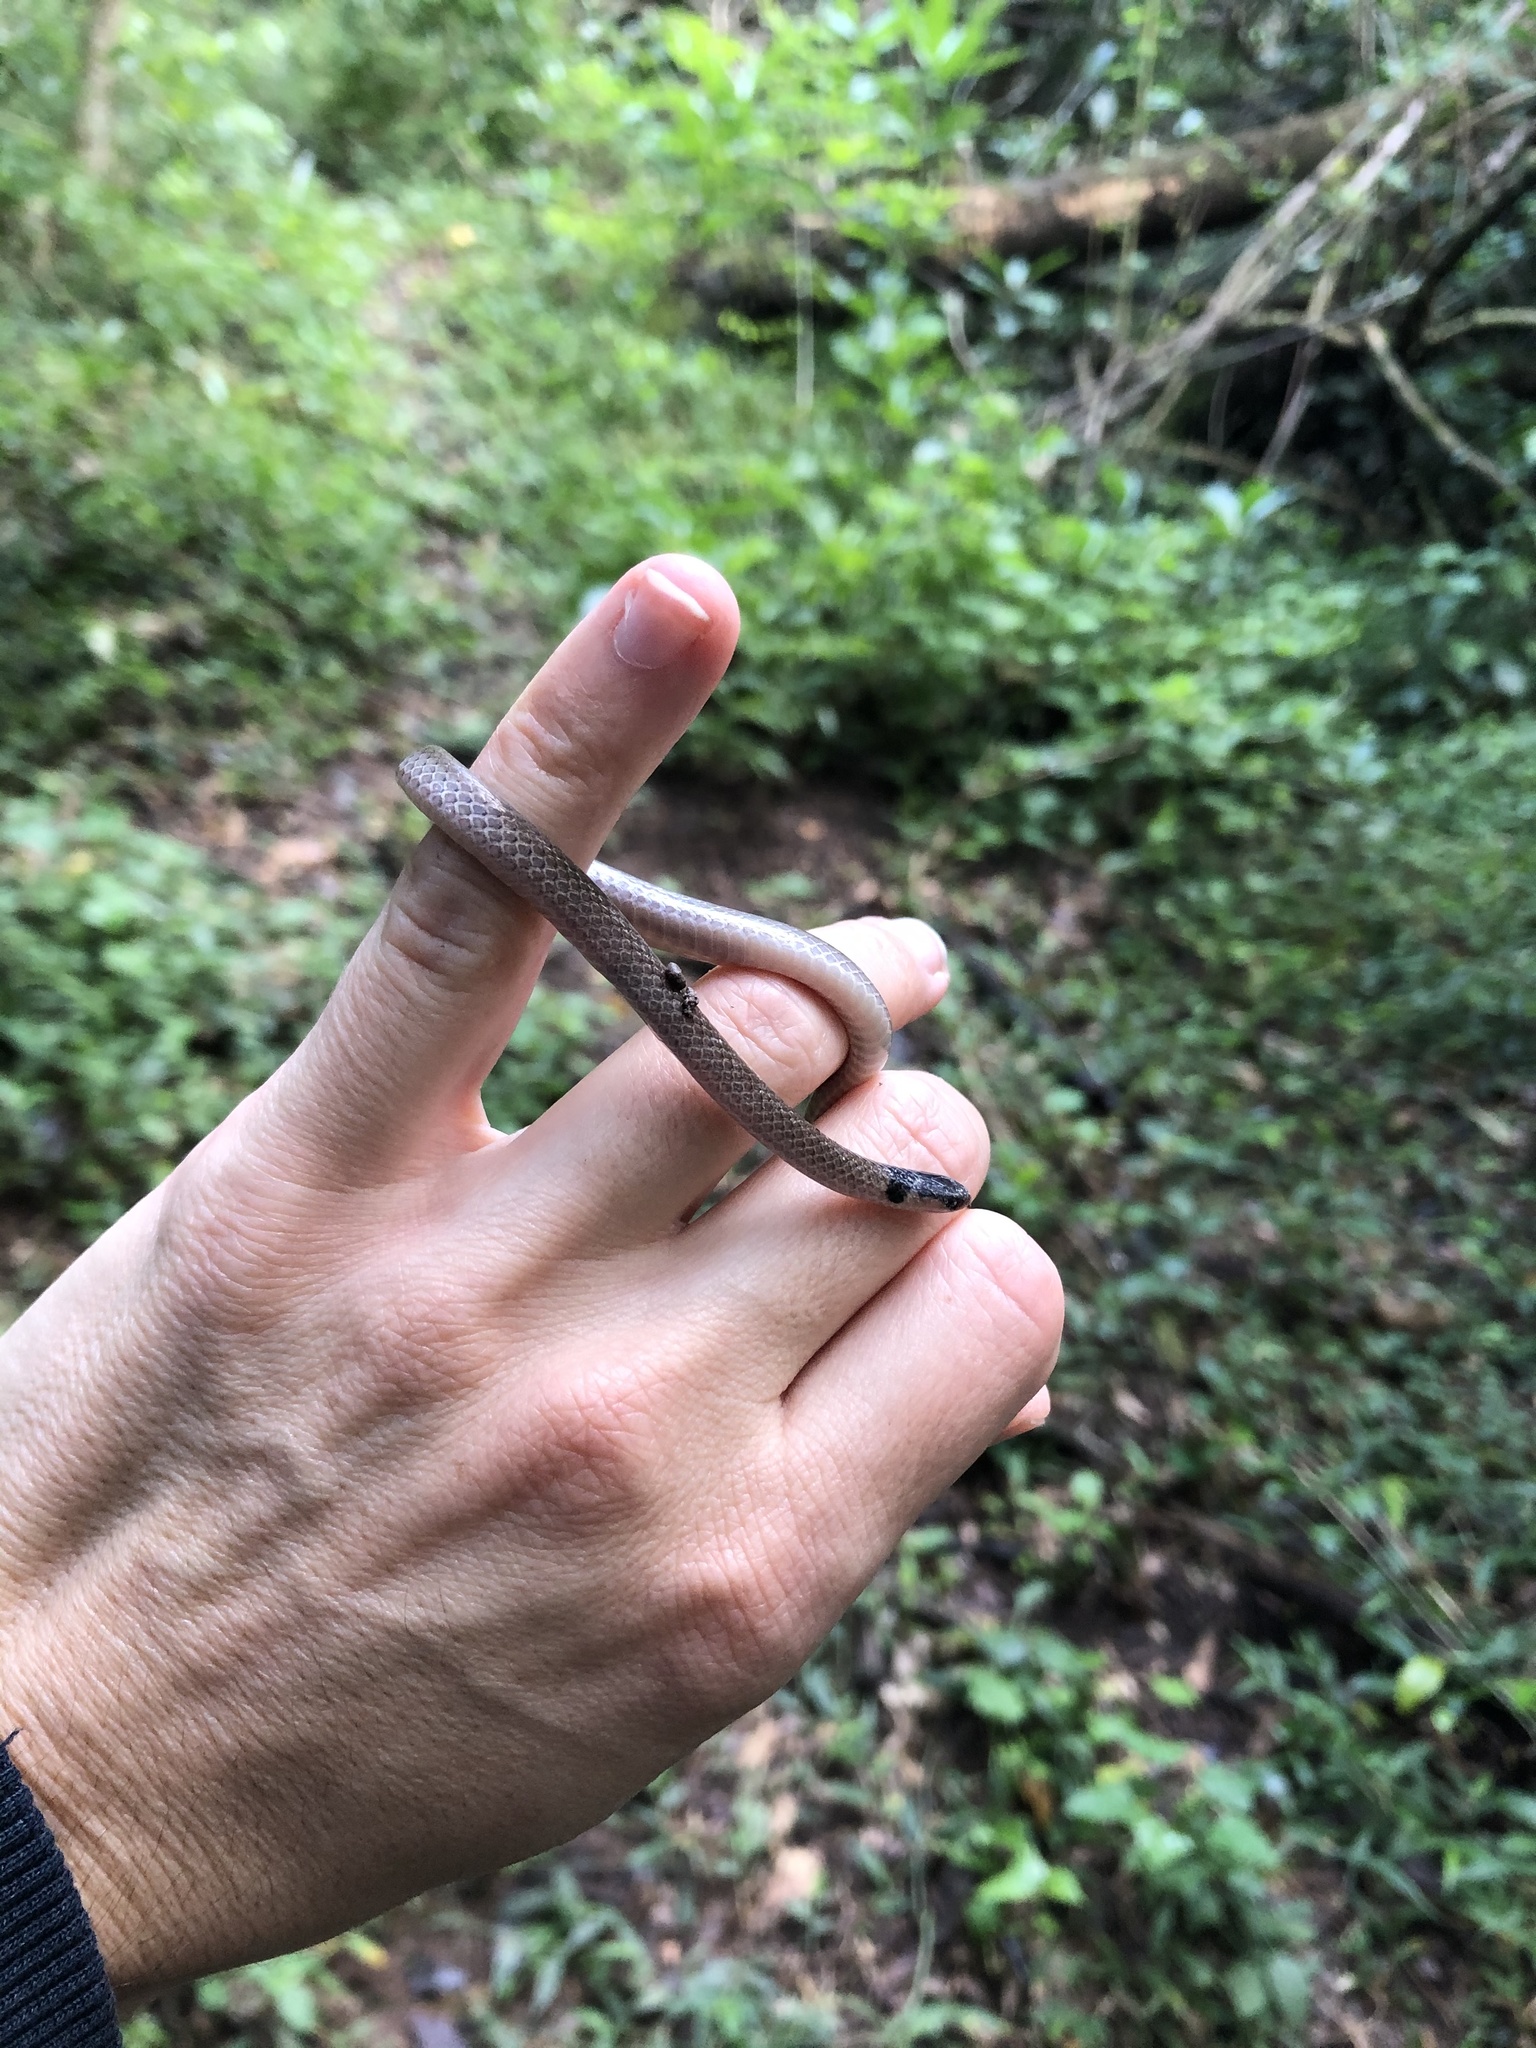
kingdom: Animalia
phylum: Chordata
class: Squamata
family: Atractaspididae
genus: Aparallactus
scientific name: Aparallactus capensis
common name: Cape centipede eater
